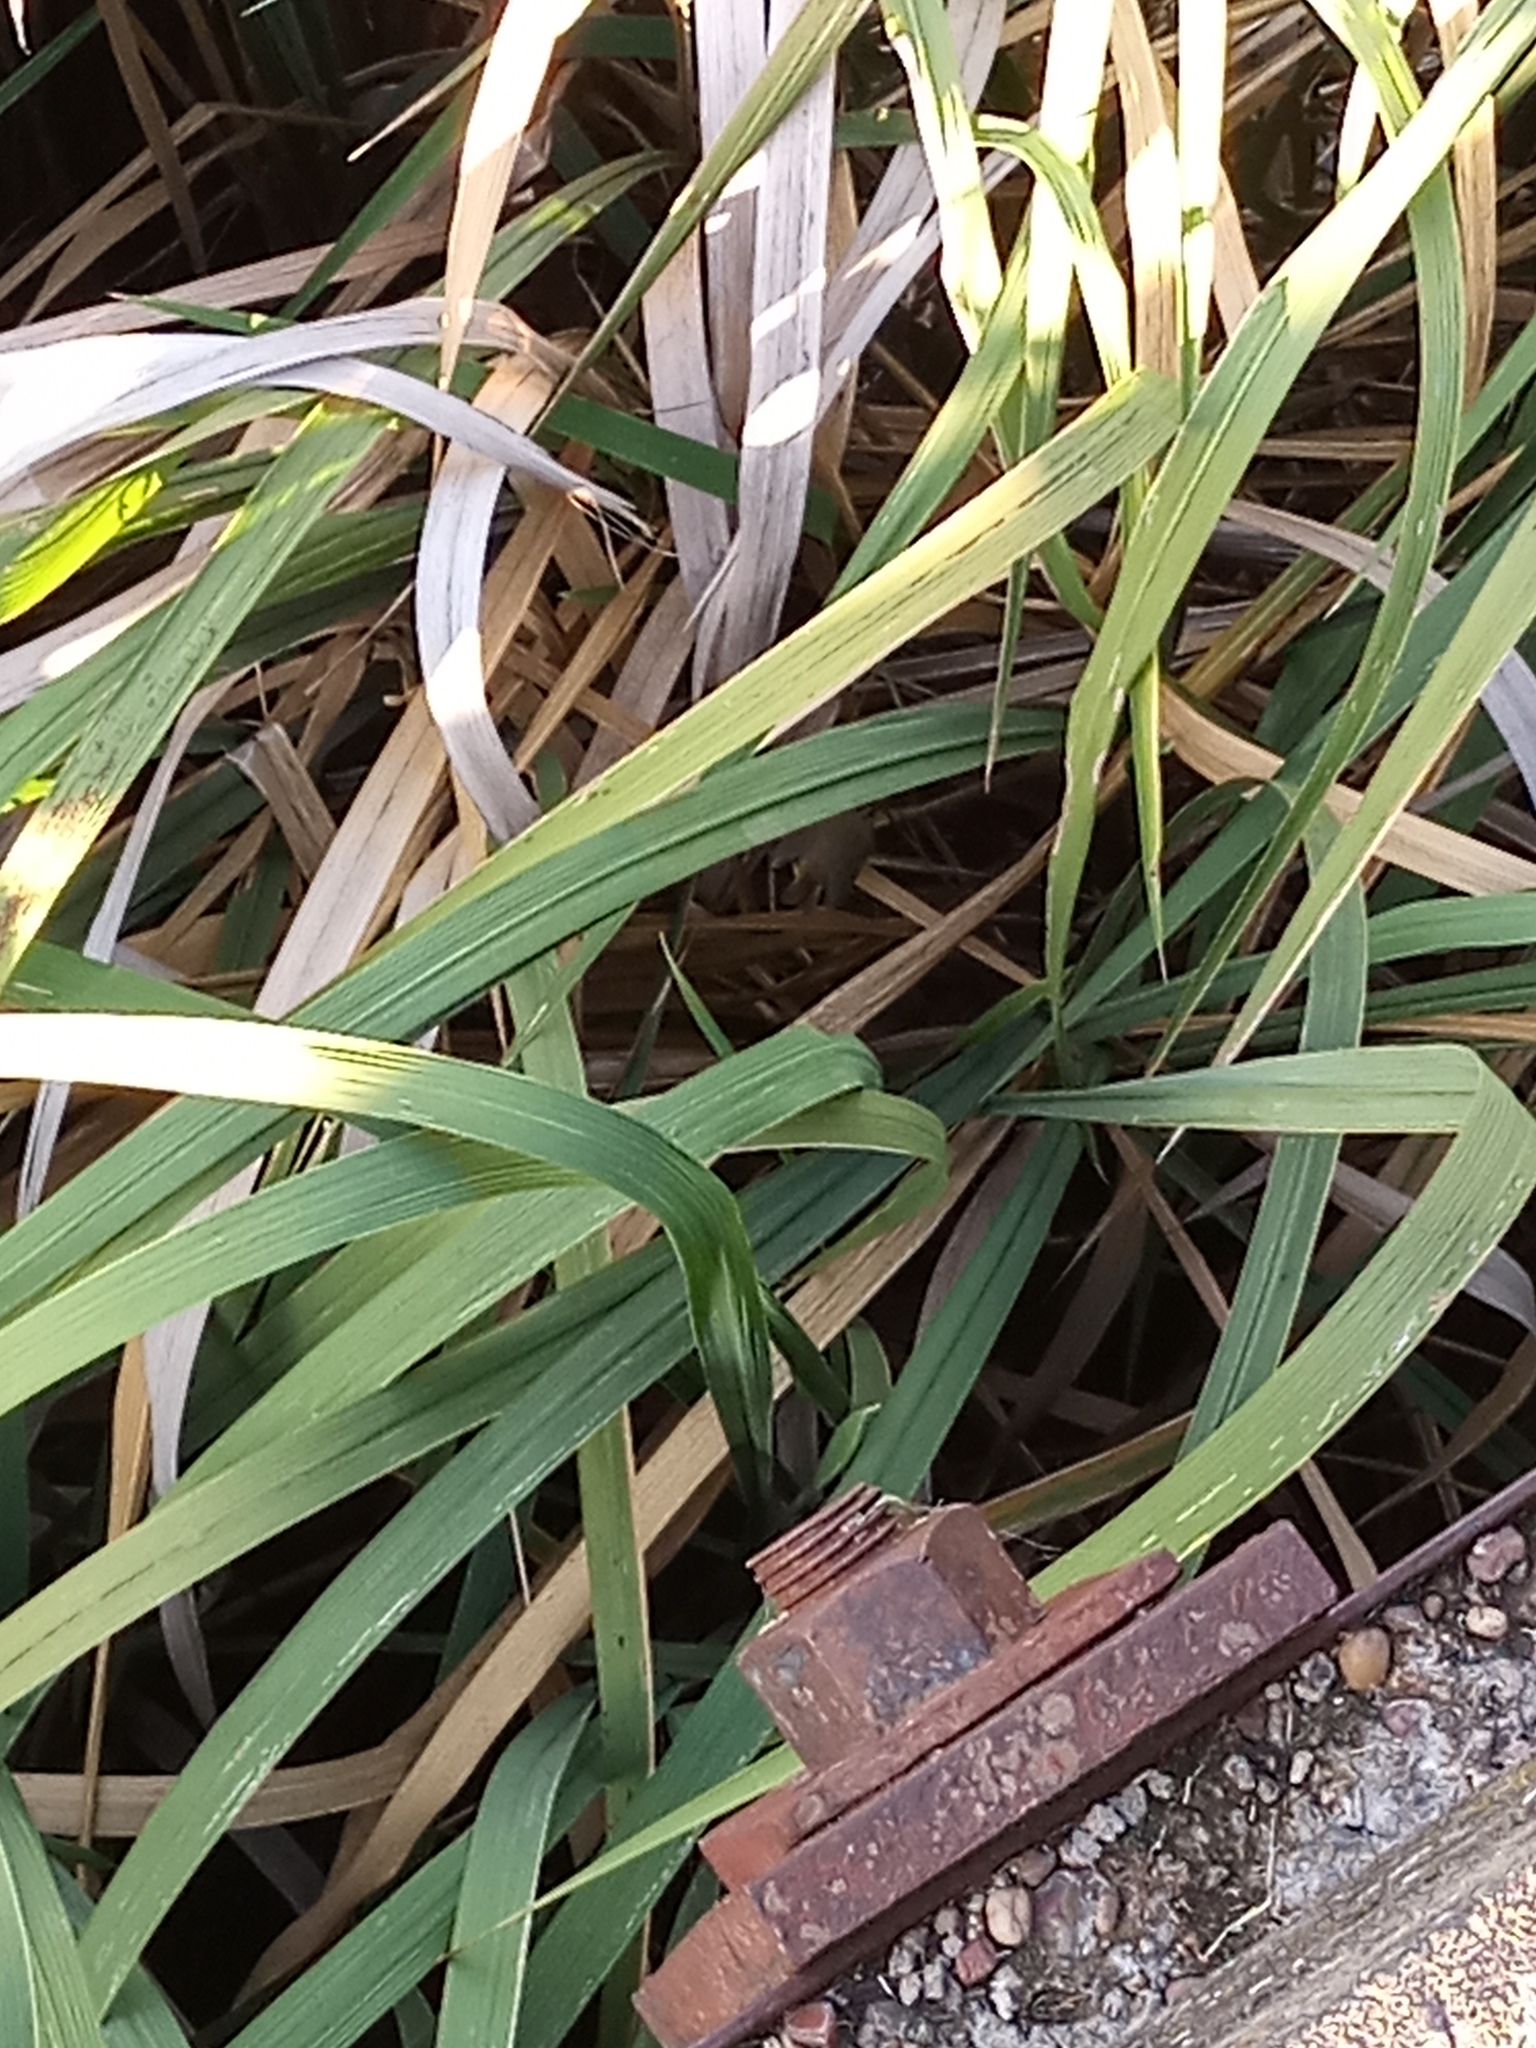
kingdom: Animalia
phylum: Chordata
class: Aves
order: Passeriformes
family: Parulidae
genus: Basileuterus
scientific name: Basileuterus culicivorus
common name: Golden-crowned warbler
